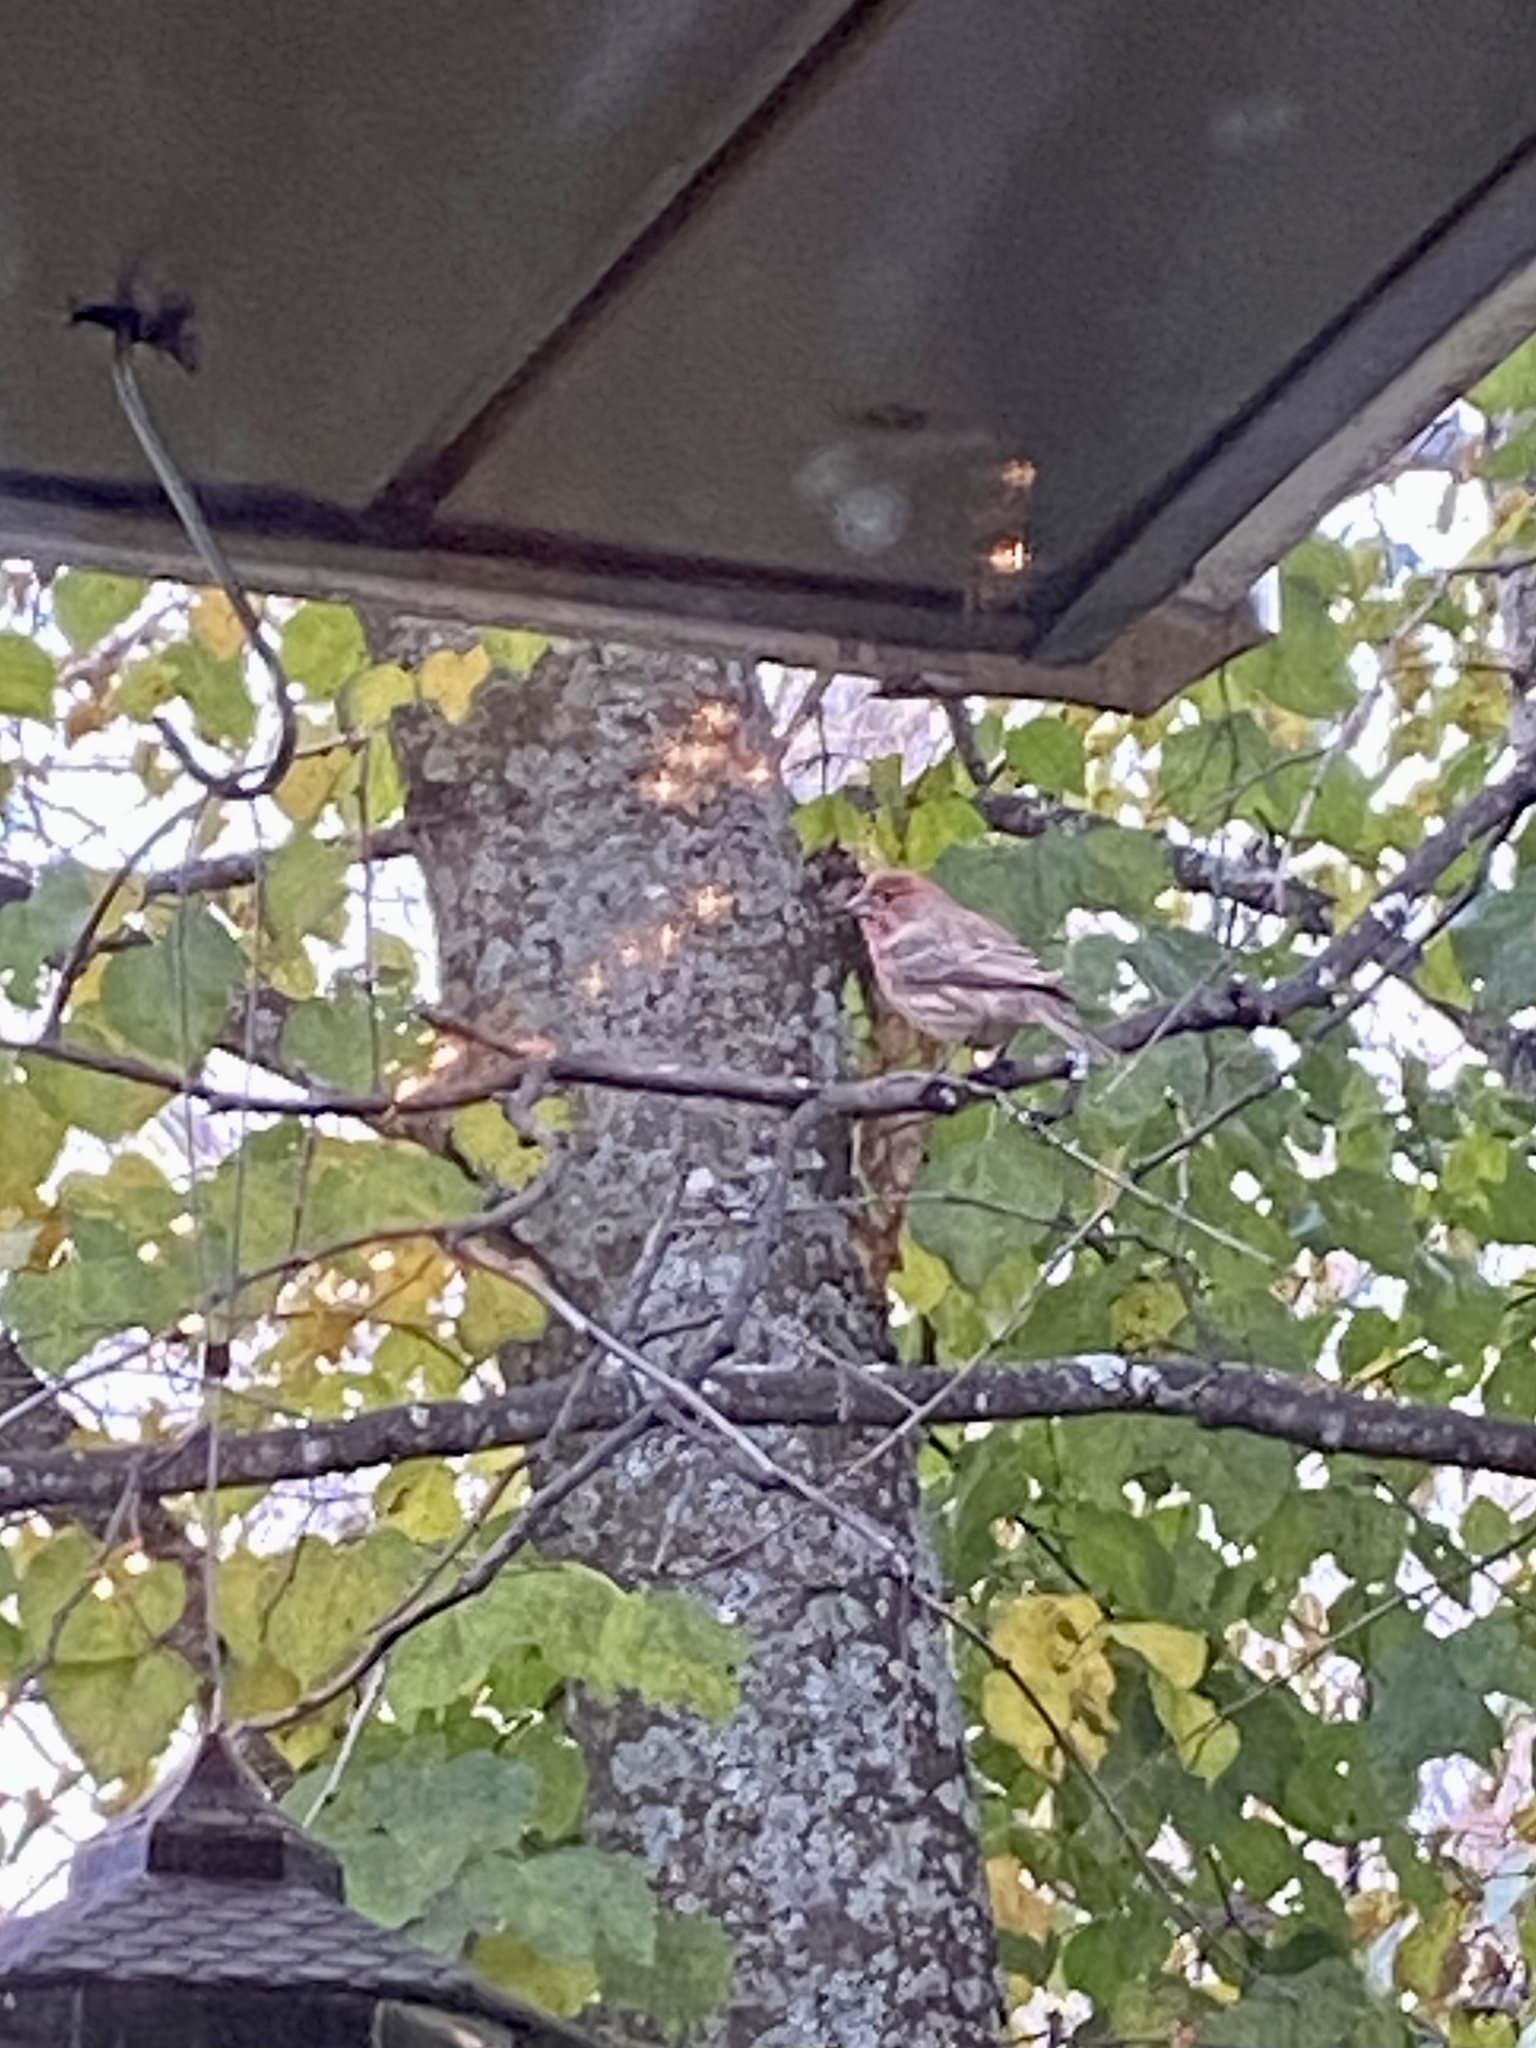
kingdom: Animalia
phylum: Chordata
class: Aves
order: Passeriformes
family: Fringillidae
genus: Haemorhous
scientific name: Haemorhous mexicanus
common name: House finch
